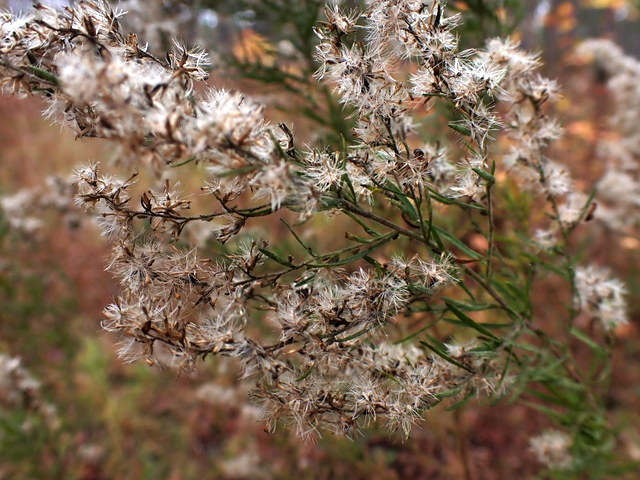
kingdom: Plantae
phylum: Tracheophyta
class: Magnoliopsida
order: Asterales
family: Asteraceae
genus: Eupatorium
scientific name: Eupatorium compositifolium
